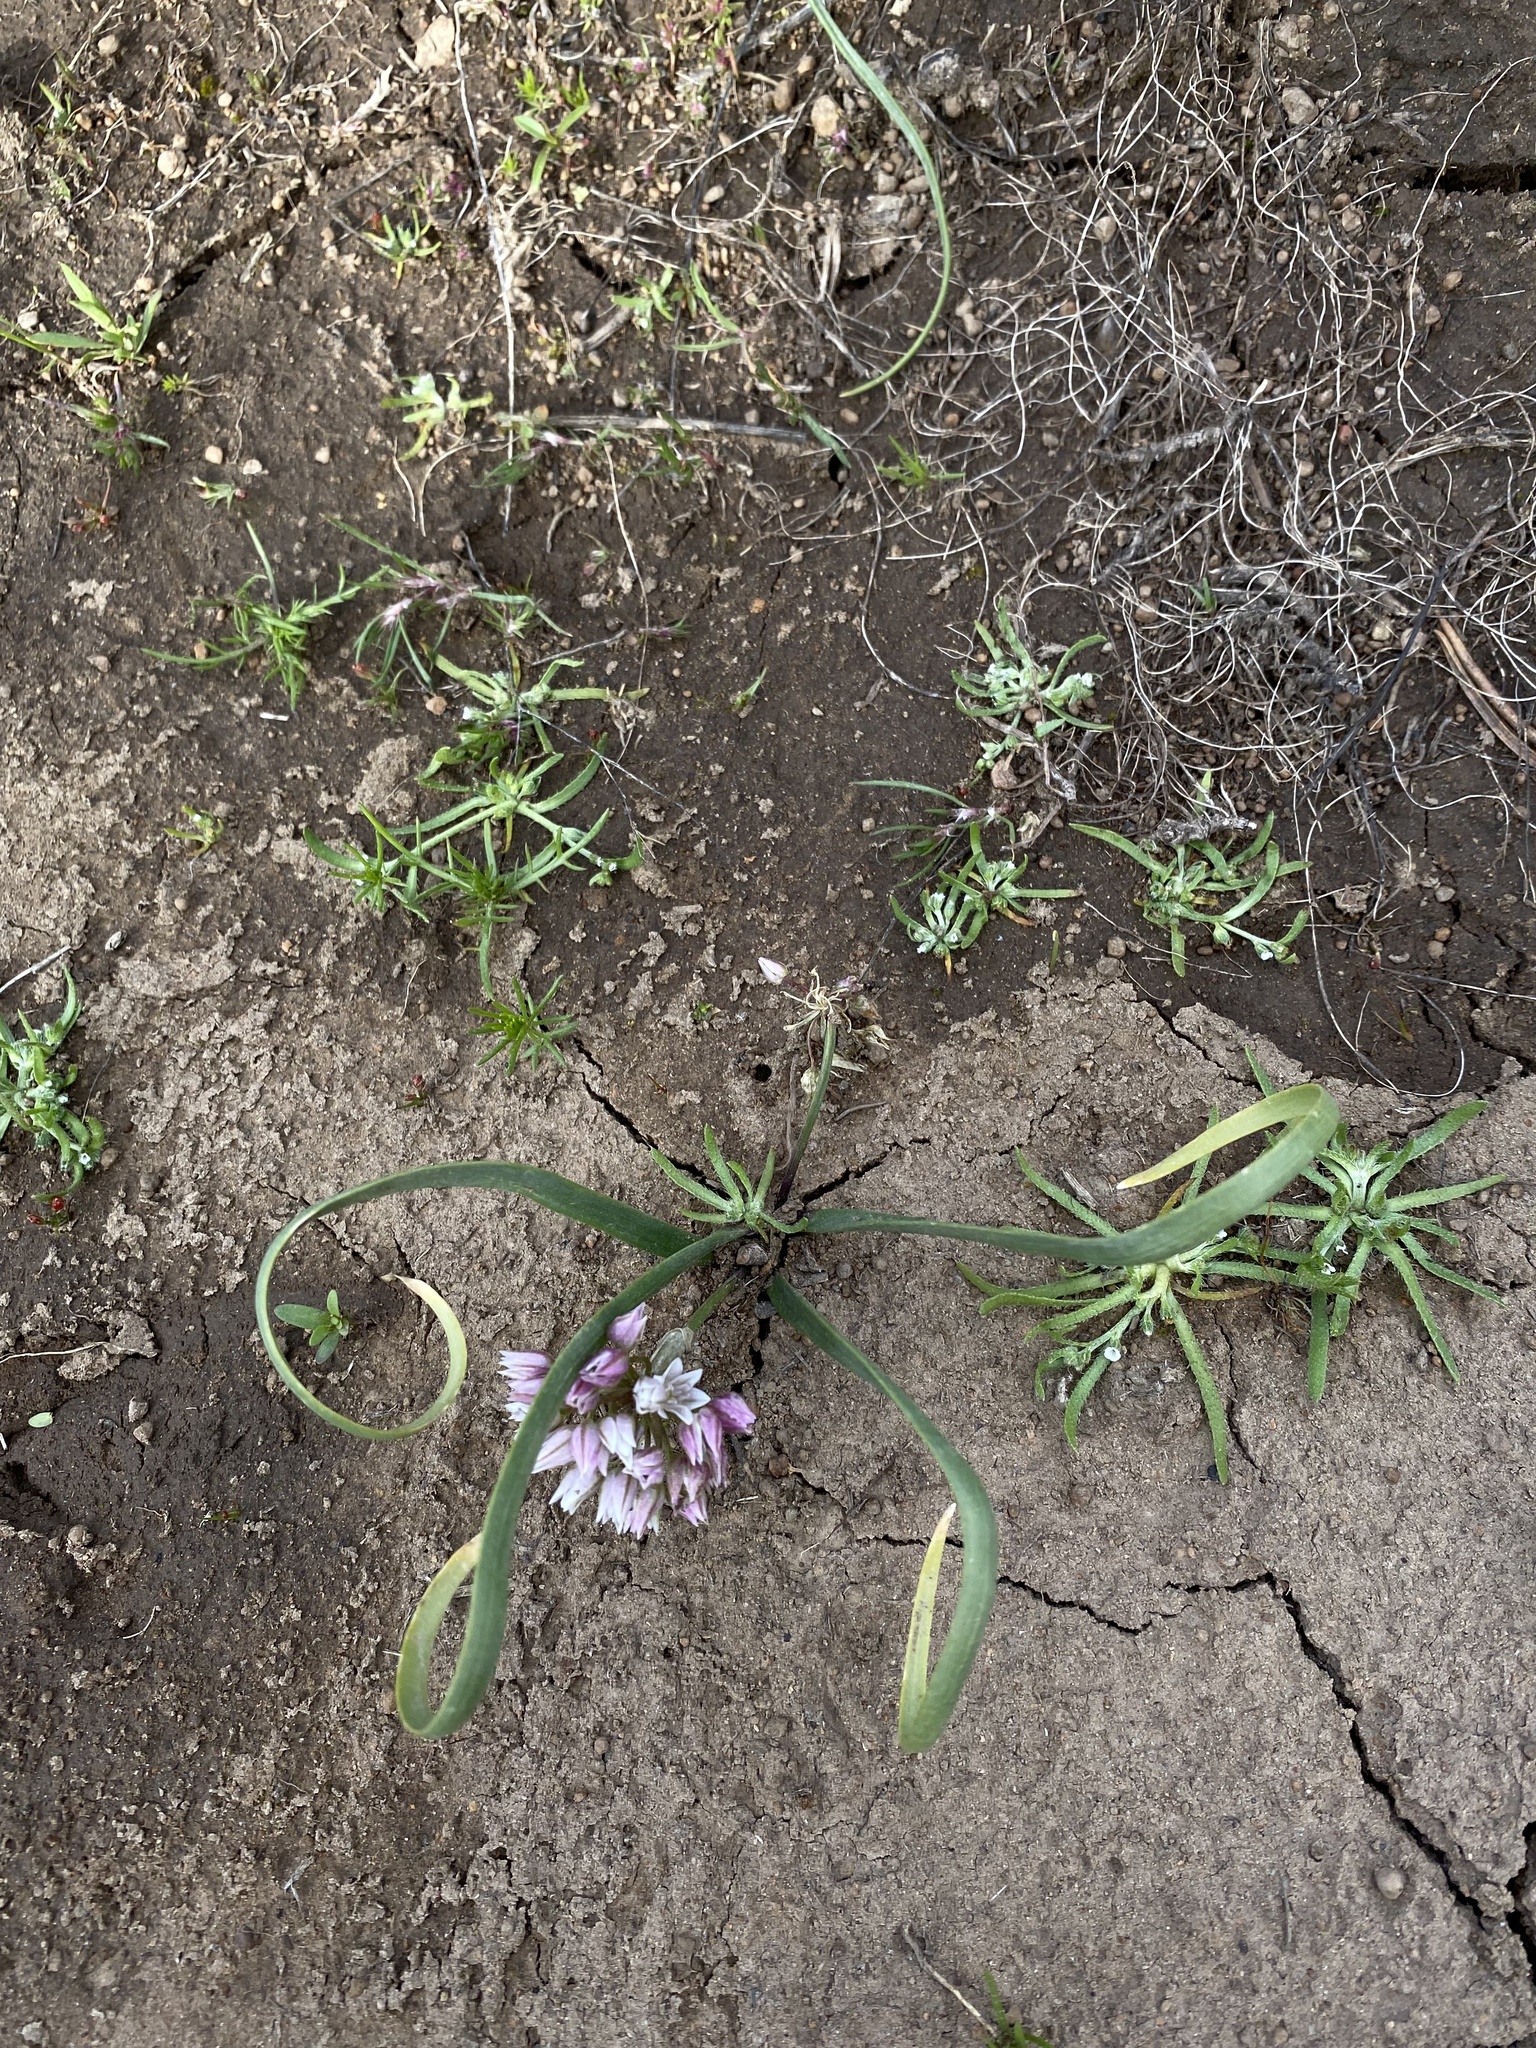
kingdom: Plantae
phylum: Tracheophyta
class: Liliopsida
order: Asparagales
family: Amaryllidaceae
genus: Allium
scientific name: Allium tolmiei
